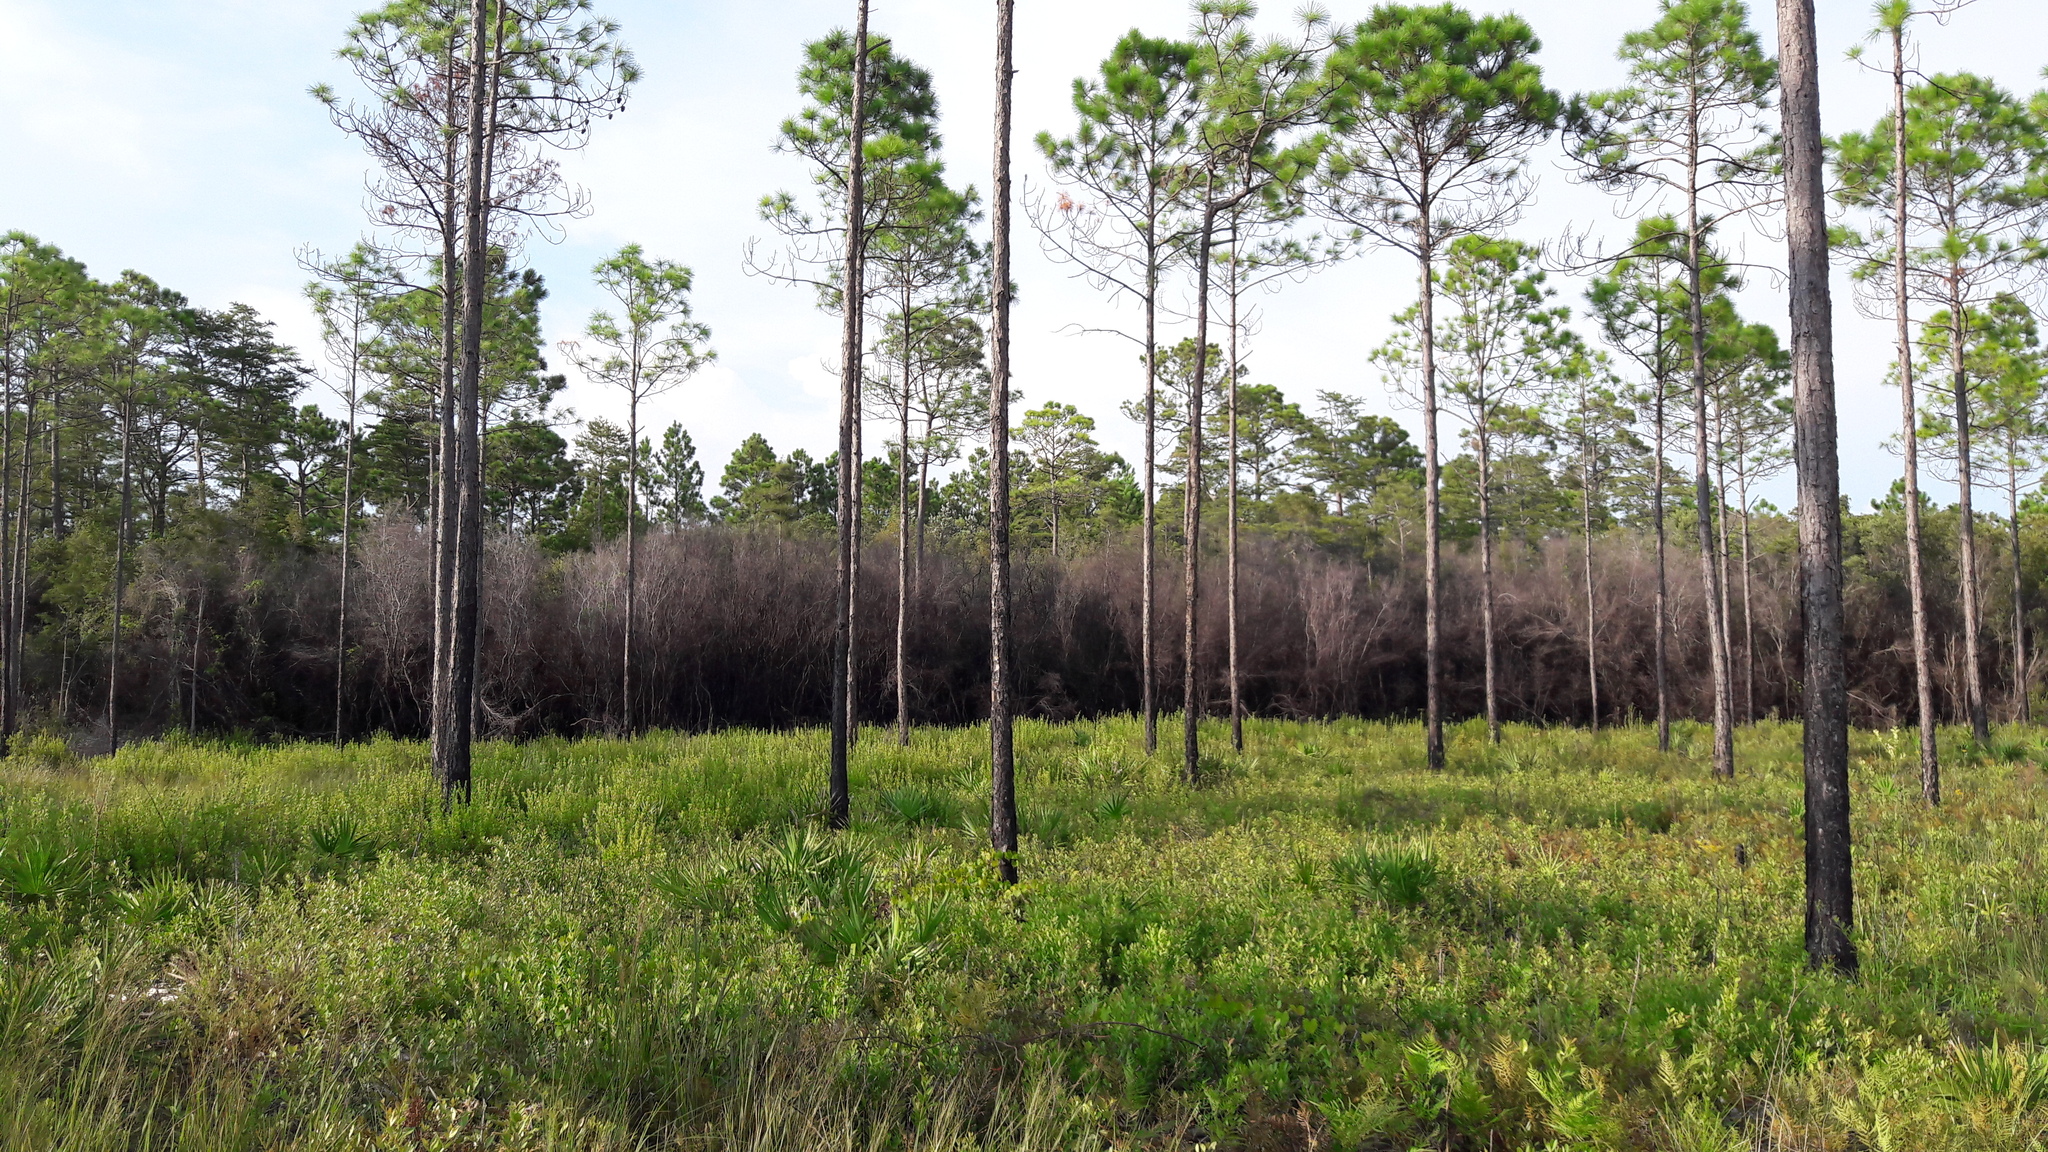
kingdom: Plantae
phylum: Tracheophyta
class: Pinopsida
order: Pinales
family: Pinaceae
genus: Pinus
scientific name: Pinus elliottii
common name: Slash pine
